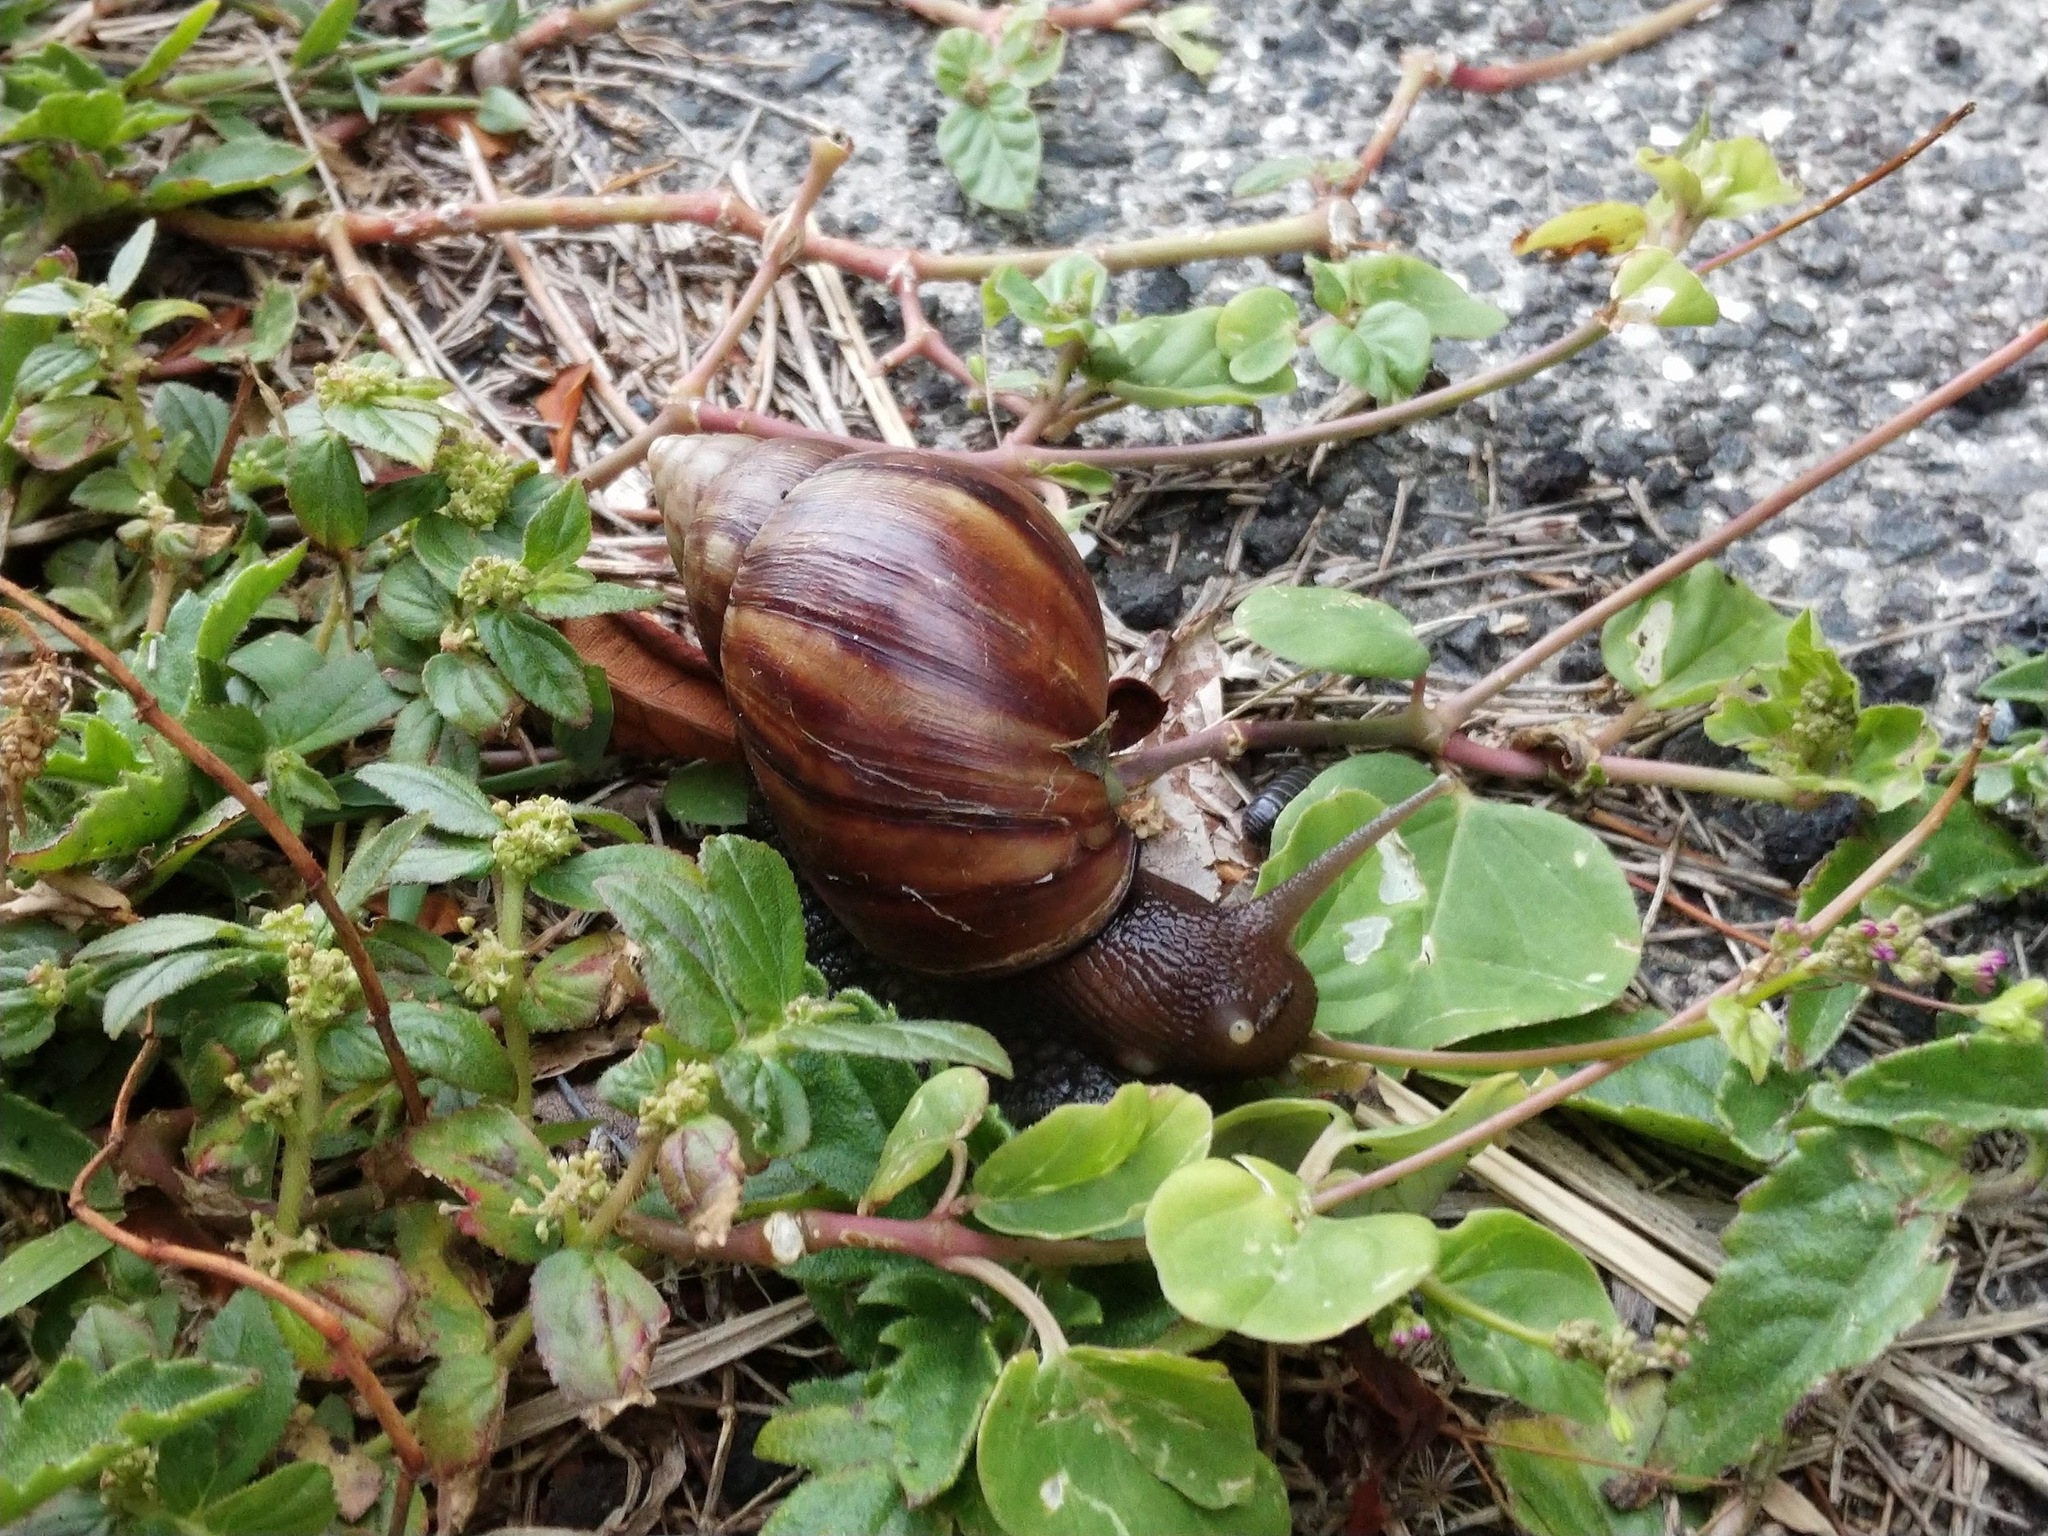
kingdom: Animalia
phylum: Mollusca
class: Gastropoda
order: Stylommatophora
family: Achatinidae
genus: Lissachatina
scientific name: Lissachatina fulica
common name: Giant african snail
